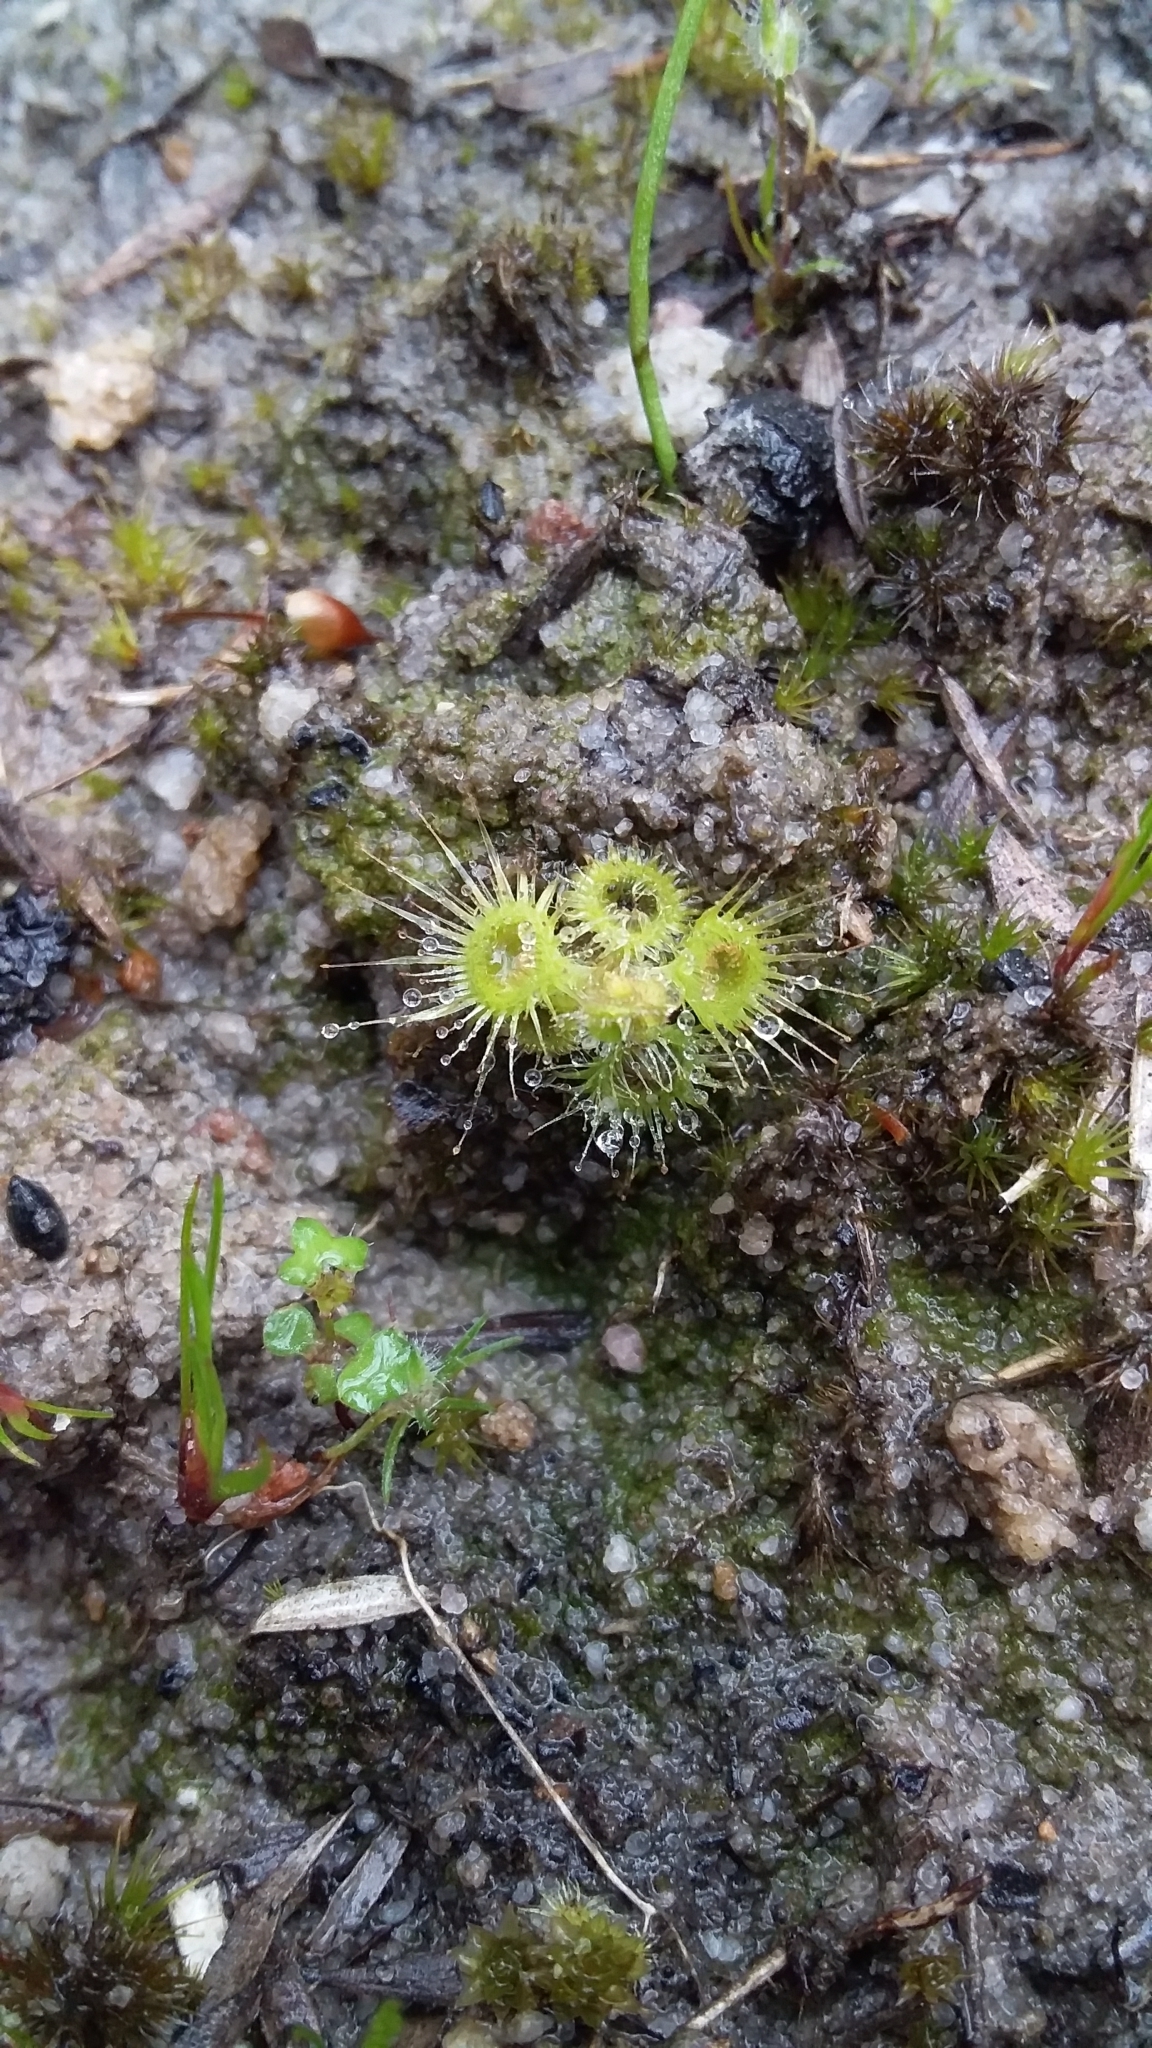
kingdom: Plantae
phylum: Tracheophyta
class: Magnoliopsida
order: Caryophyllales
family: Droseraceae
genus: Drosera
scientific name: Drosera glanduligera
